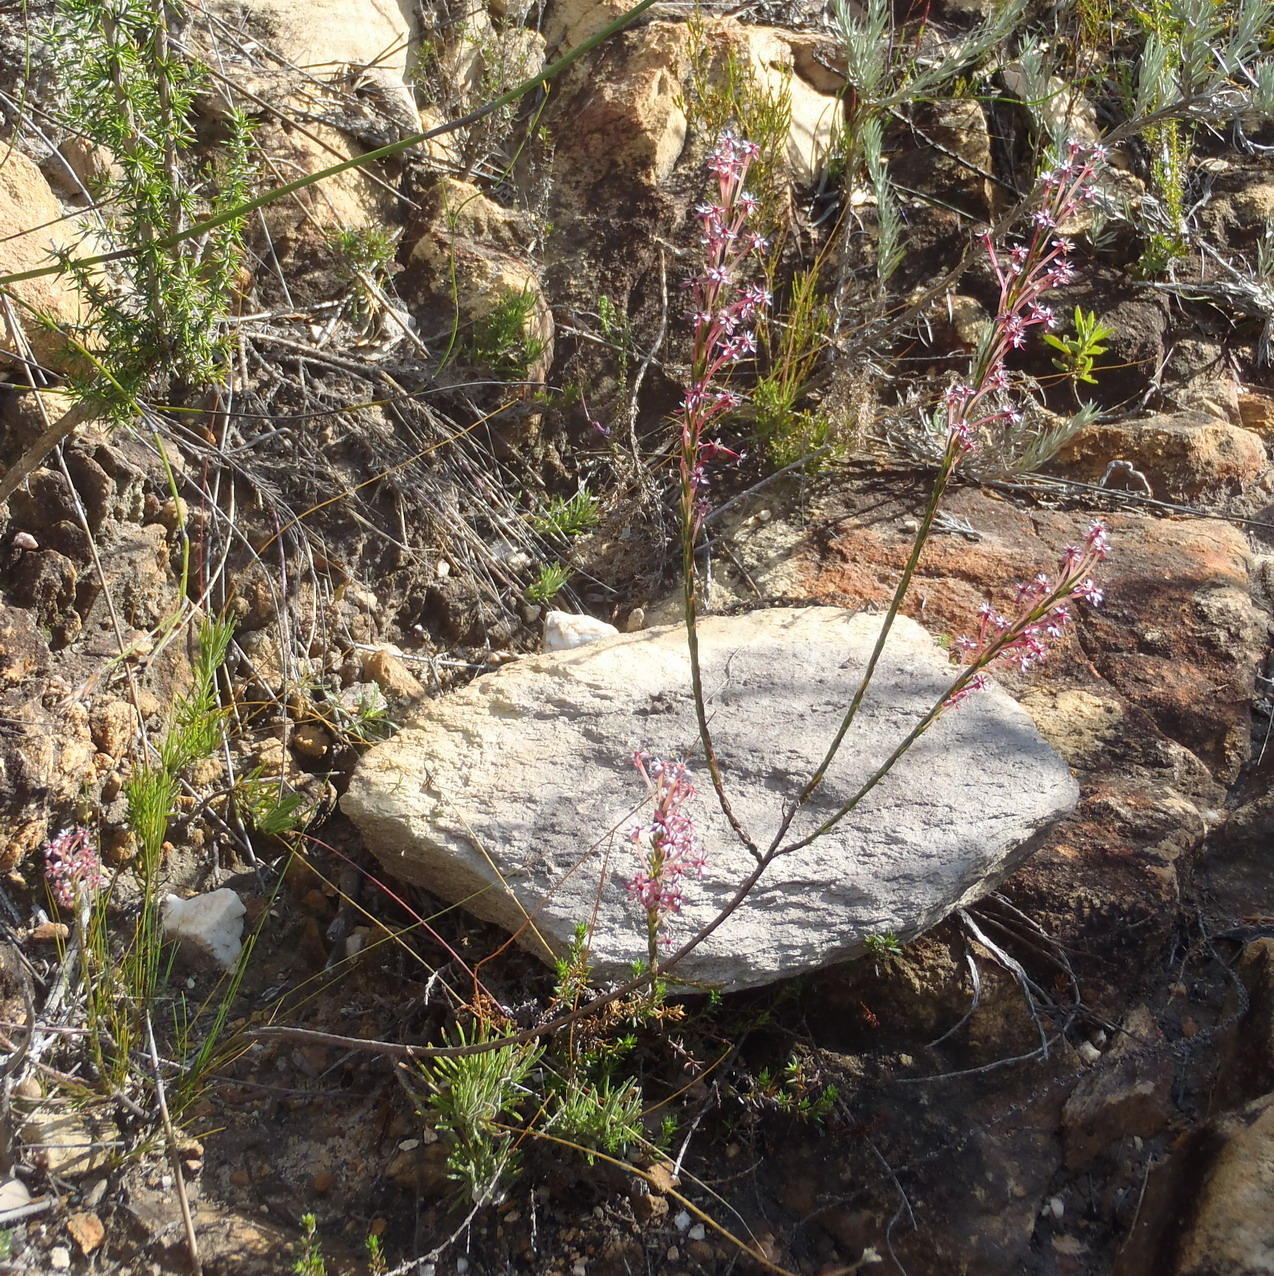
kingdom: Plantae
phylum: Tracheophyta
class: Magnoliopsida
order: Malvales
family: Thymelaeaceae
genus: Struthiola
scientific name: Struthiola macowanii
